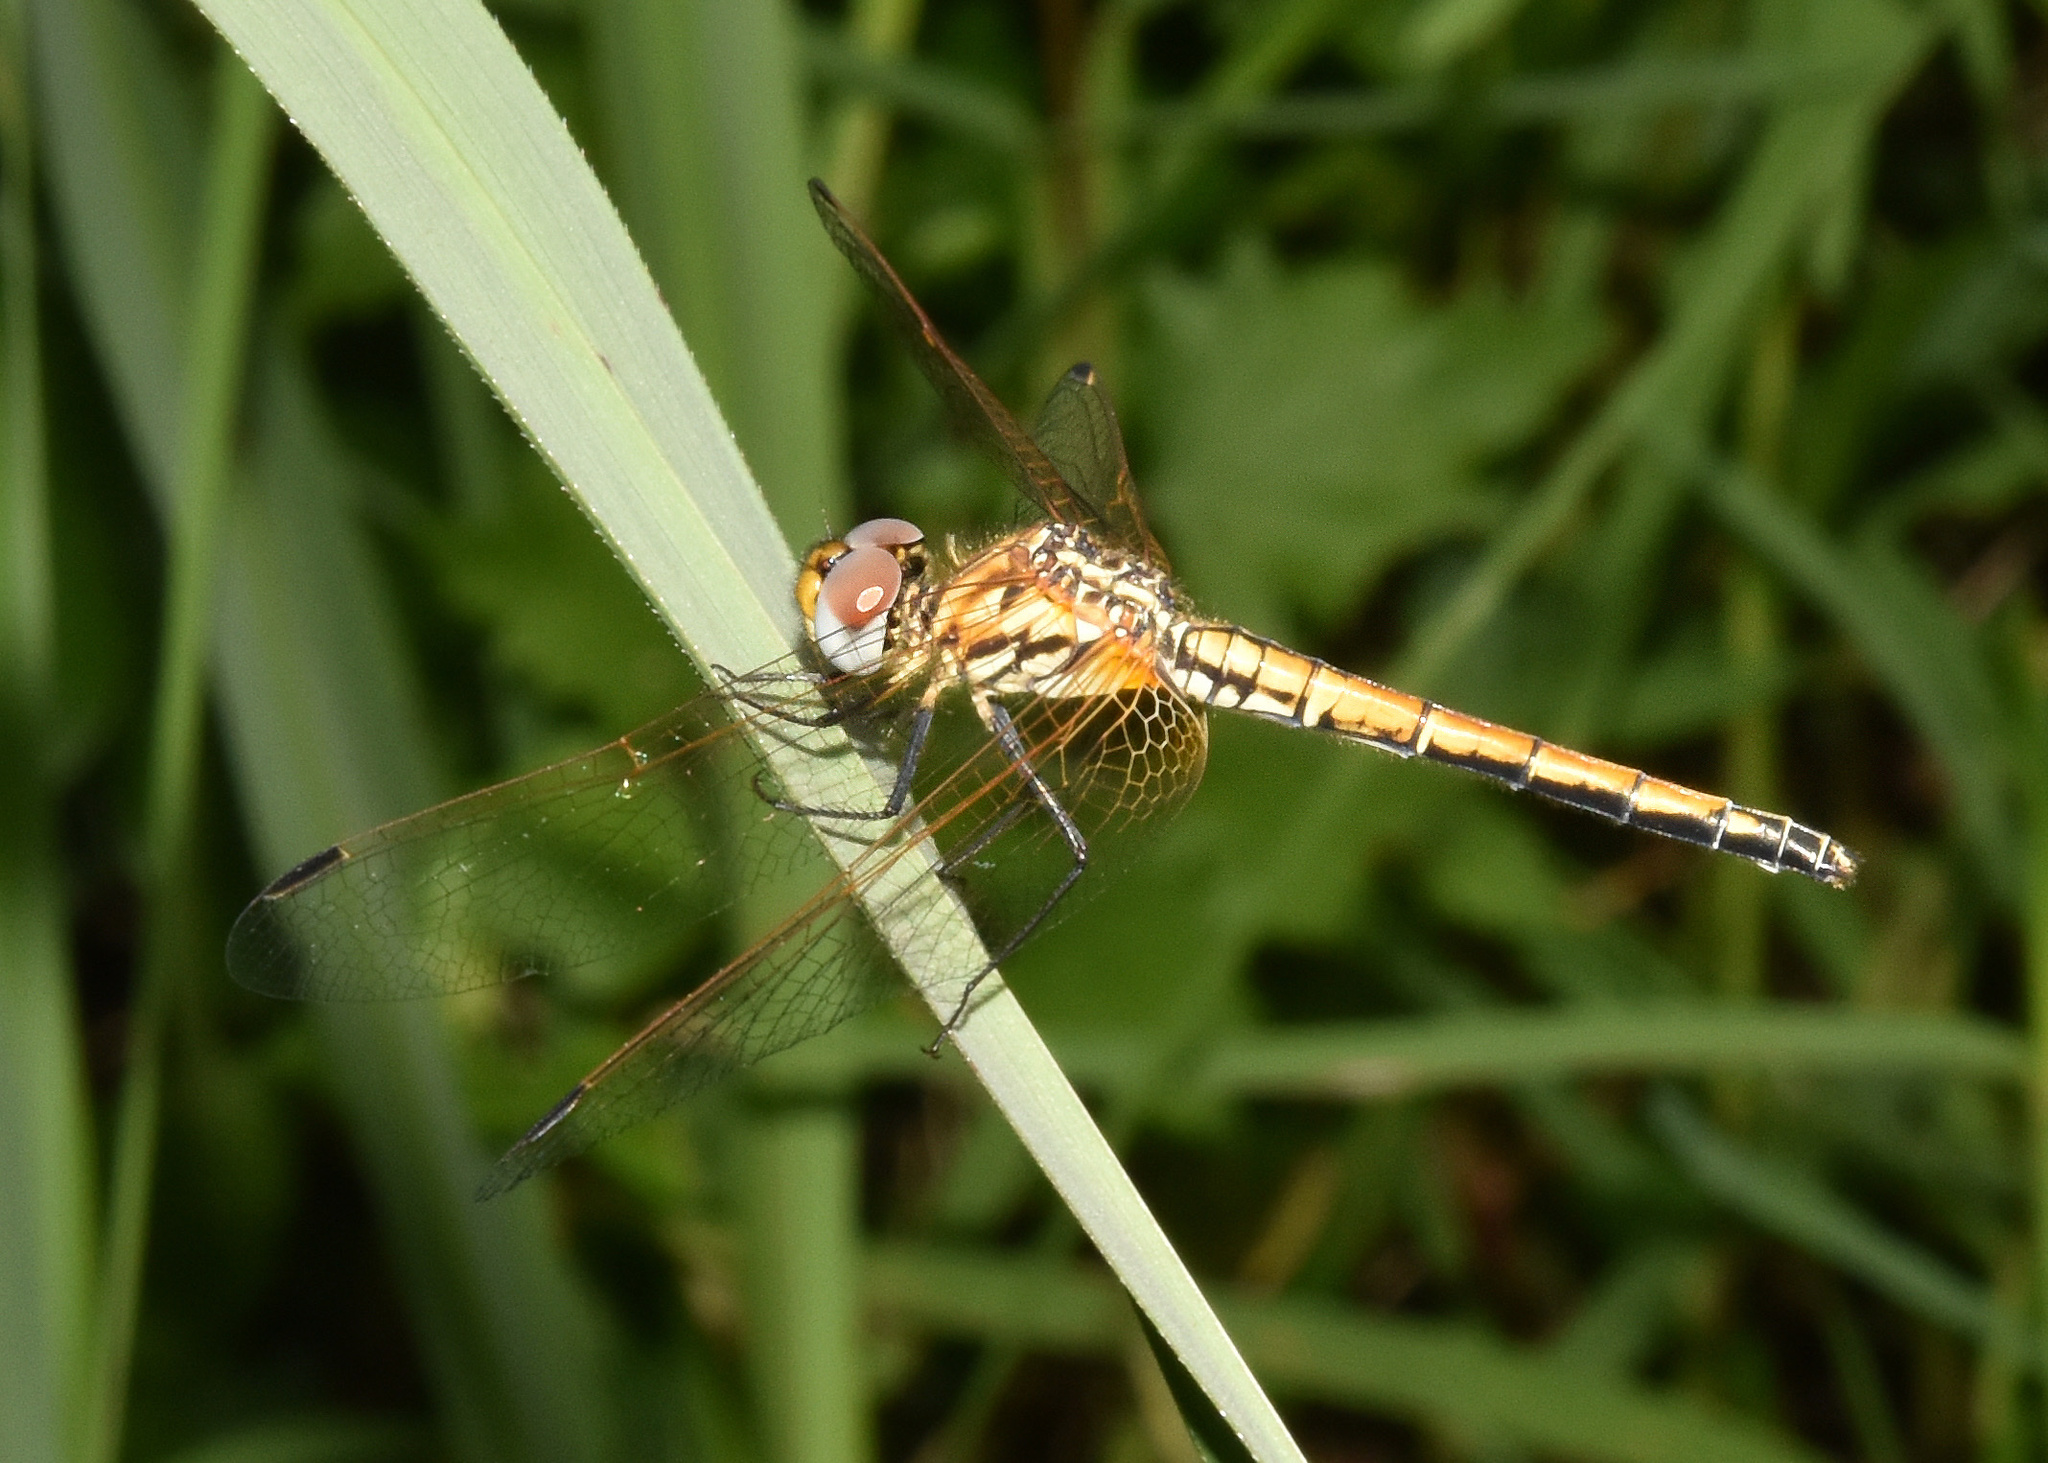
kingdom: Animalia
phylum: Arthropoda
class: Insecta
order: Odonata
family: Libellulidae
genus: Trithemis
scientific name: Trithemis arteriosa
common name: Red-veined dropwing
